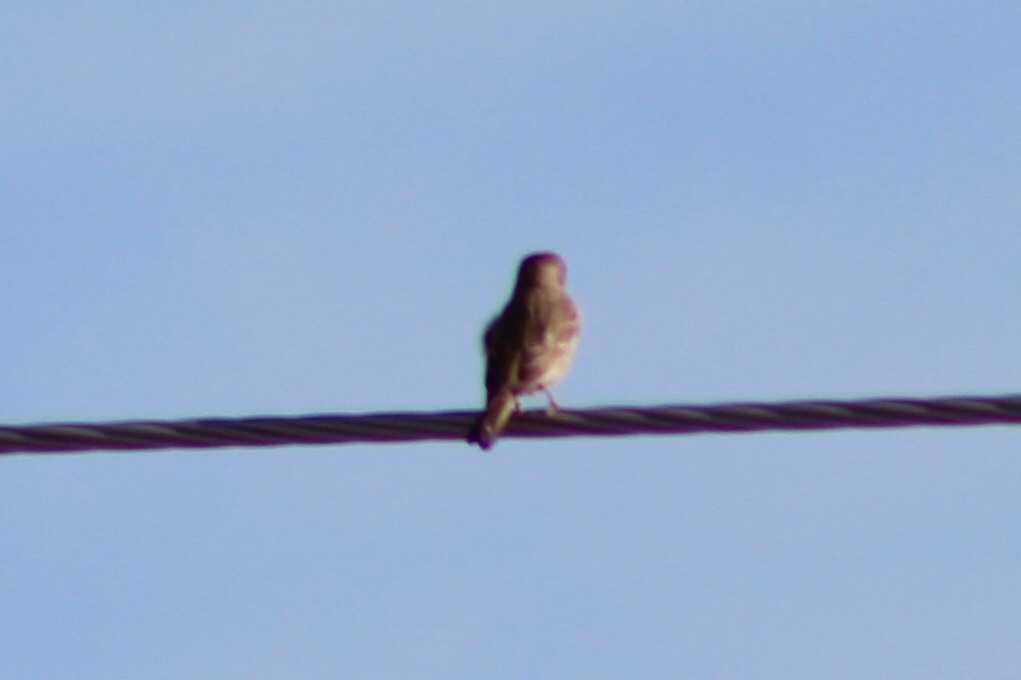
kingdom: Animalia
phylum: Chordata
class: Aves
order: Passeriformes
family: Fringillidae
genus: Haemorhous
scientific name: Haemorhous mexicanus
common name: House finch
